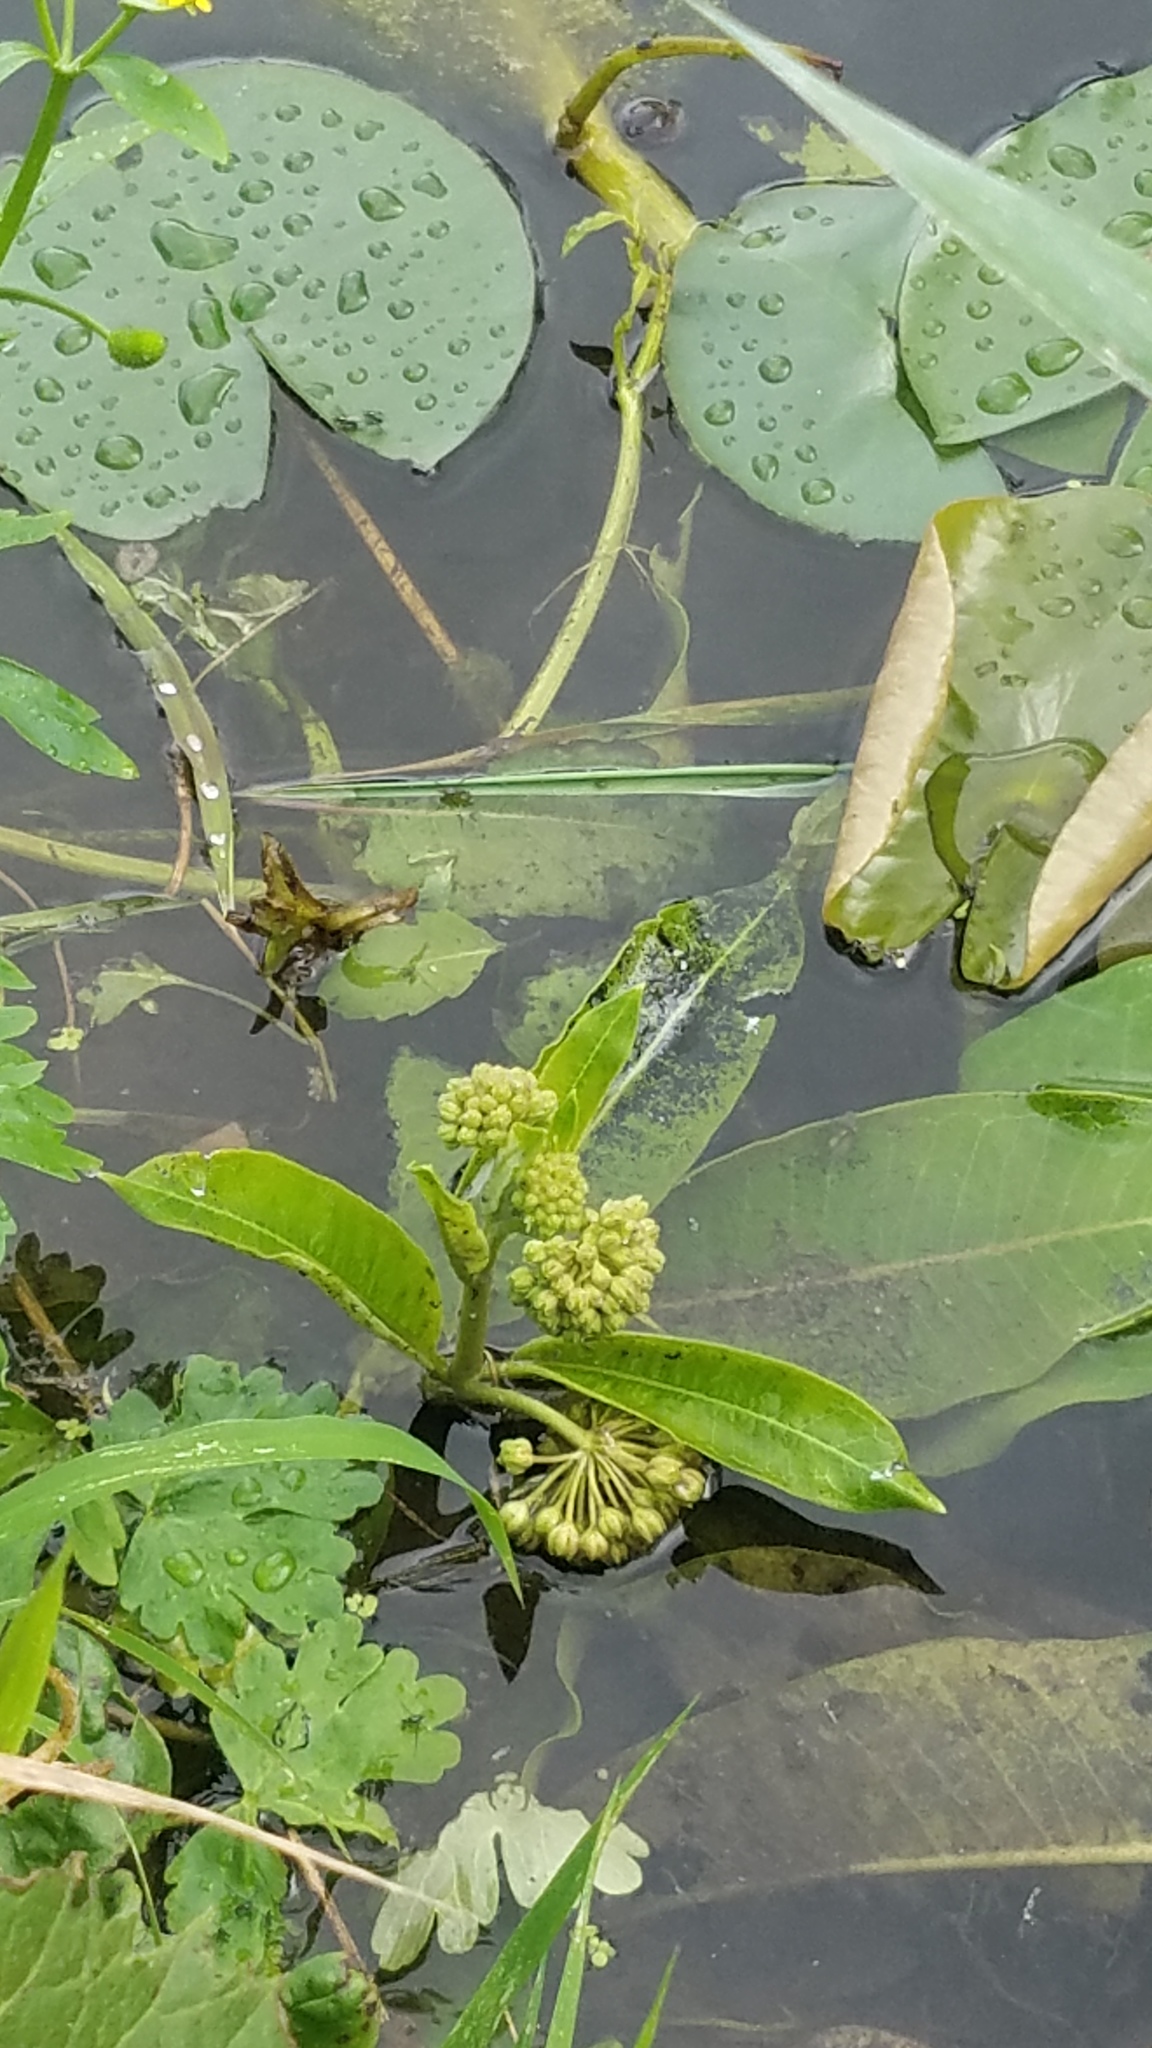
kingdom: Plantae
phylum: Tracheophyta
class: Magnoliopsida
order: Gentianales
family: Apocynaceae
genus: Asclepias
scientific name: Asclepias syriaca
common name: Common milkweed
